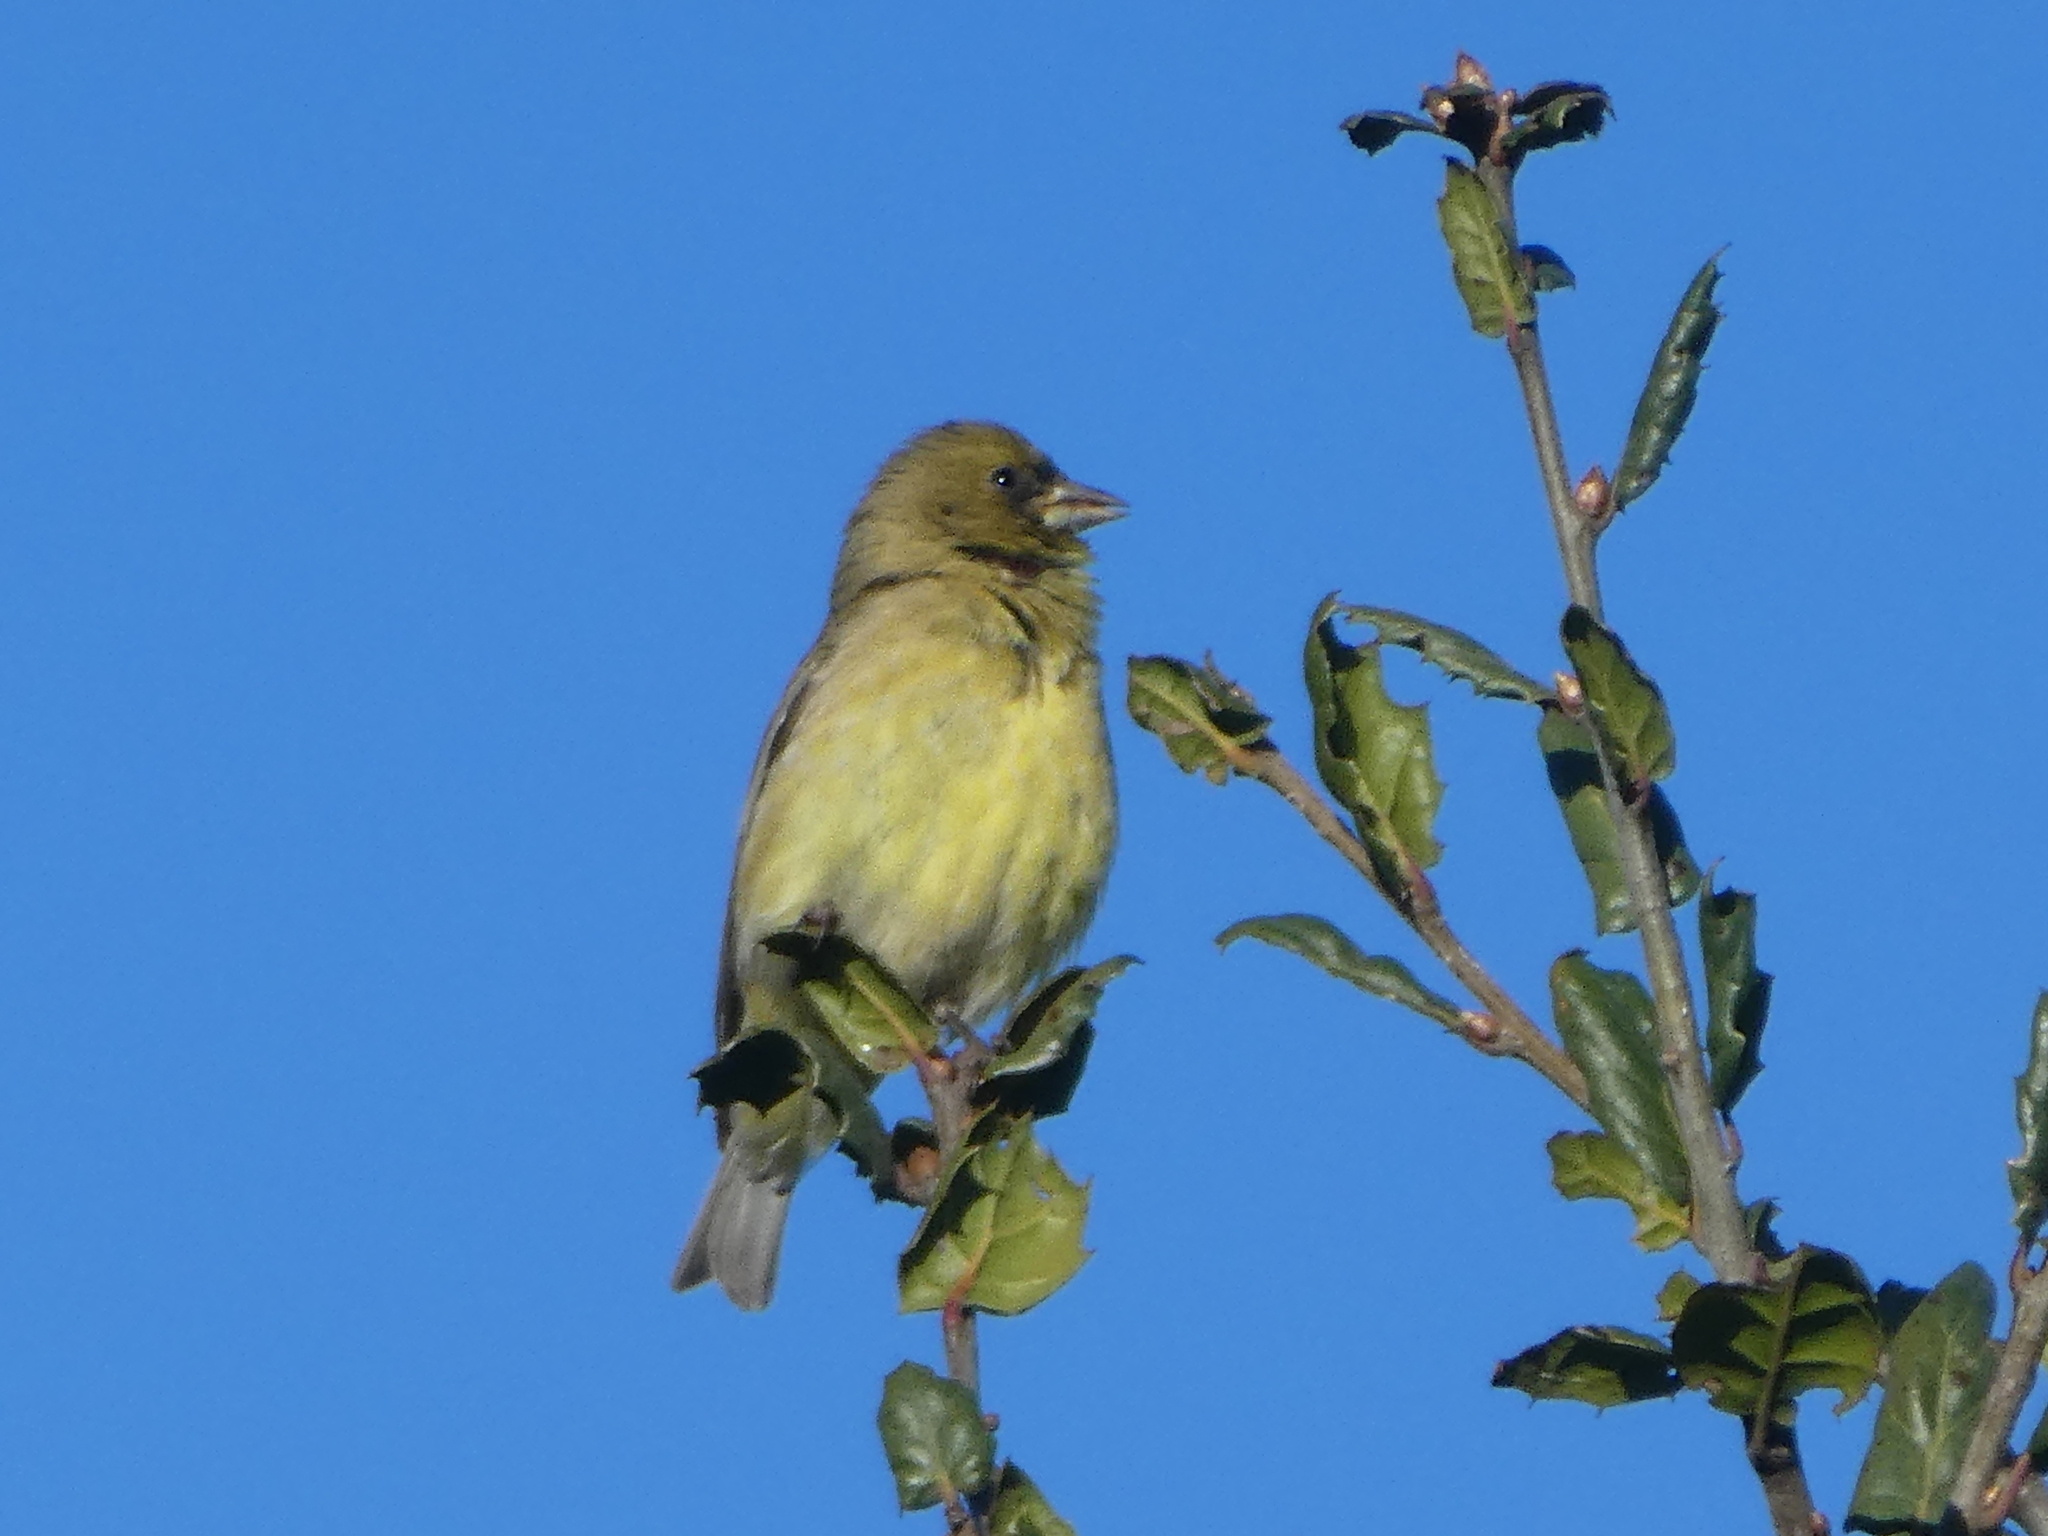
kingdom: Animalia
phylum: Chordata
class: Aves
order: Passeriformes
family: Fringillidae
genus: Spinus
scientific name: Spinus psaltria
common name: Lesser goldfinch
